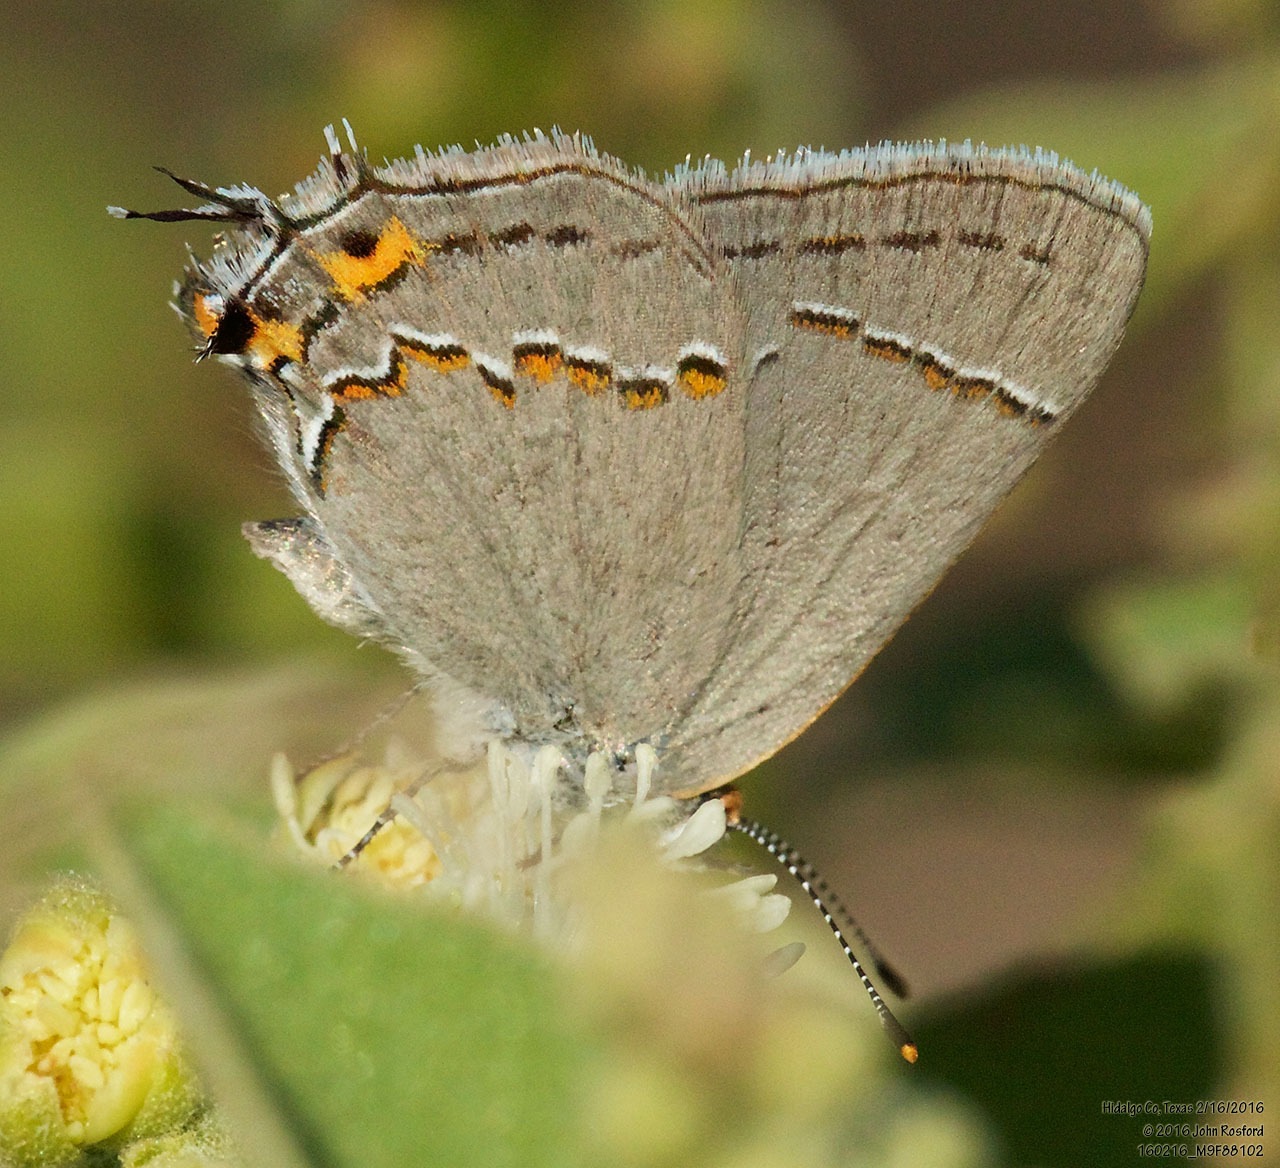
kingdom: Animalia
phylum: Arthropoda
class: Insecta
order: Lepidoptera
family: Lycaenidae
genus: Strymon
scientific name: Strymon melinus
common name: Gray hairstreak
